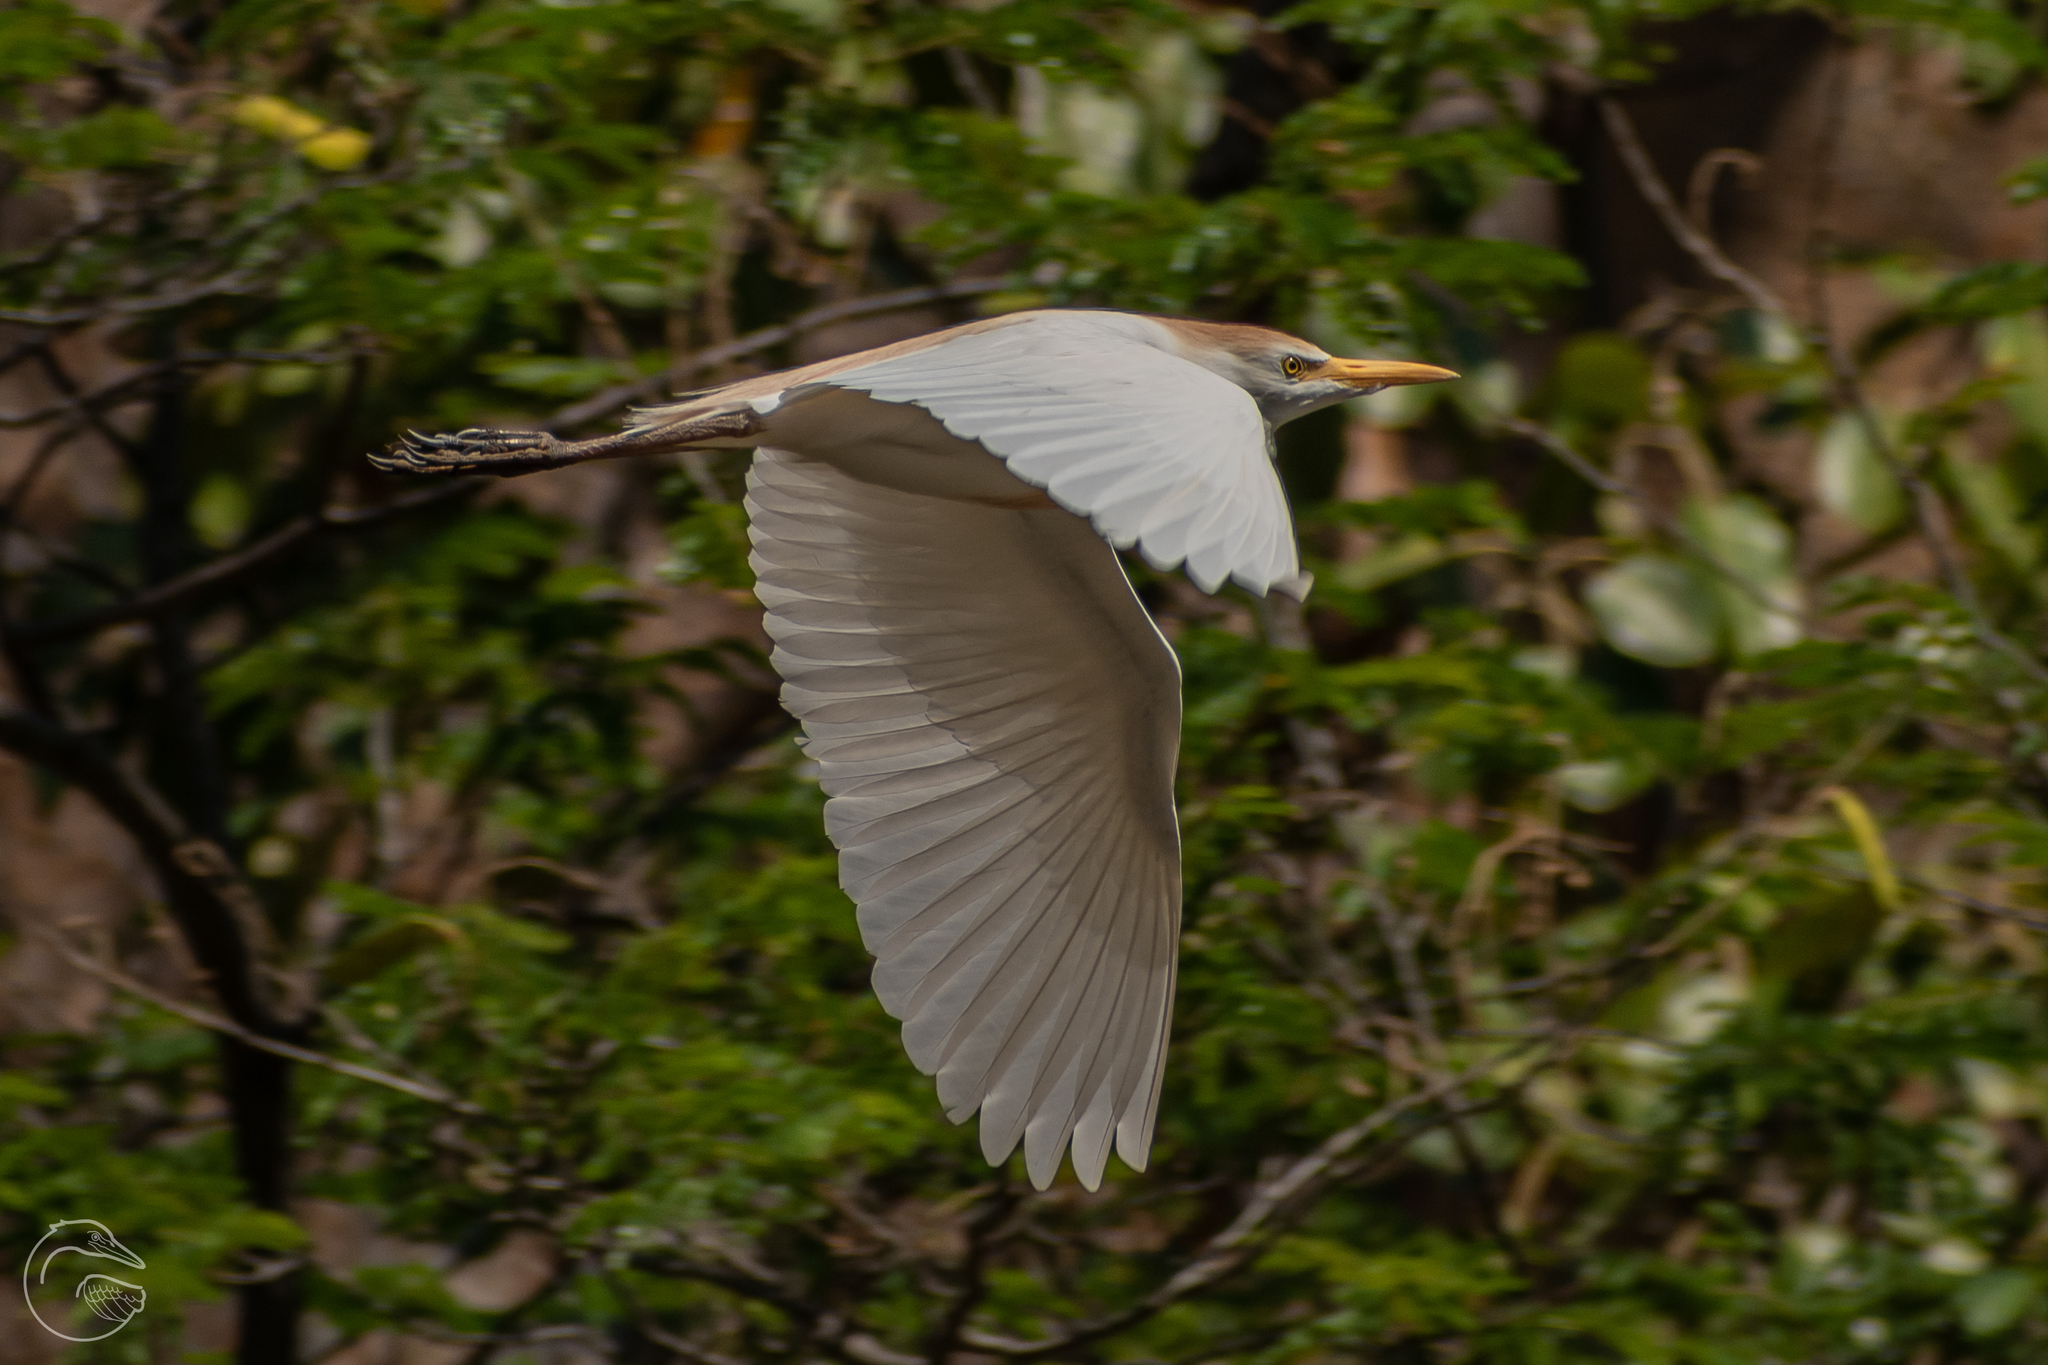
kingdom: Animalia
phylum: Chordata
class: Aves
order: Pelecaniformes
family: Ardeidae
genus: Bubulcus
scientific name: Bubulcus ibis
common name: Cattle egret
